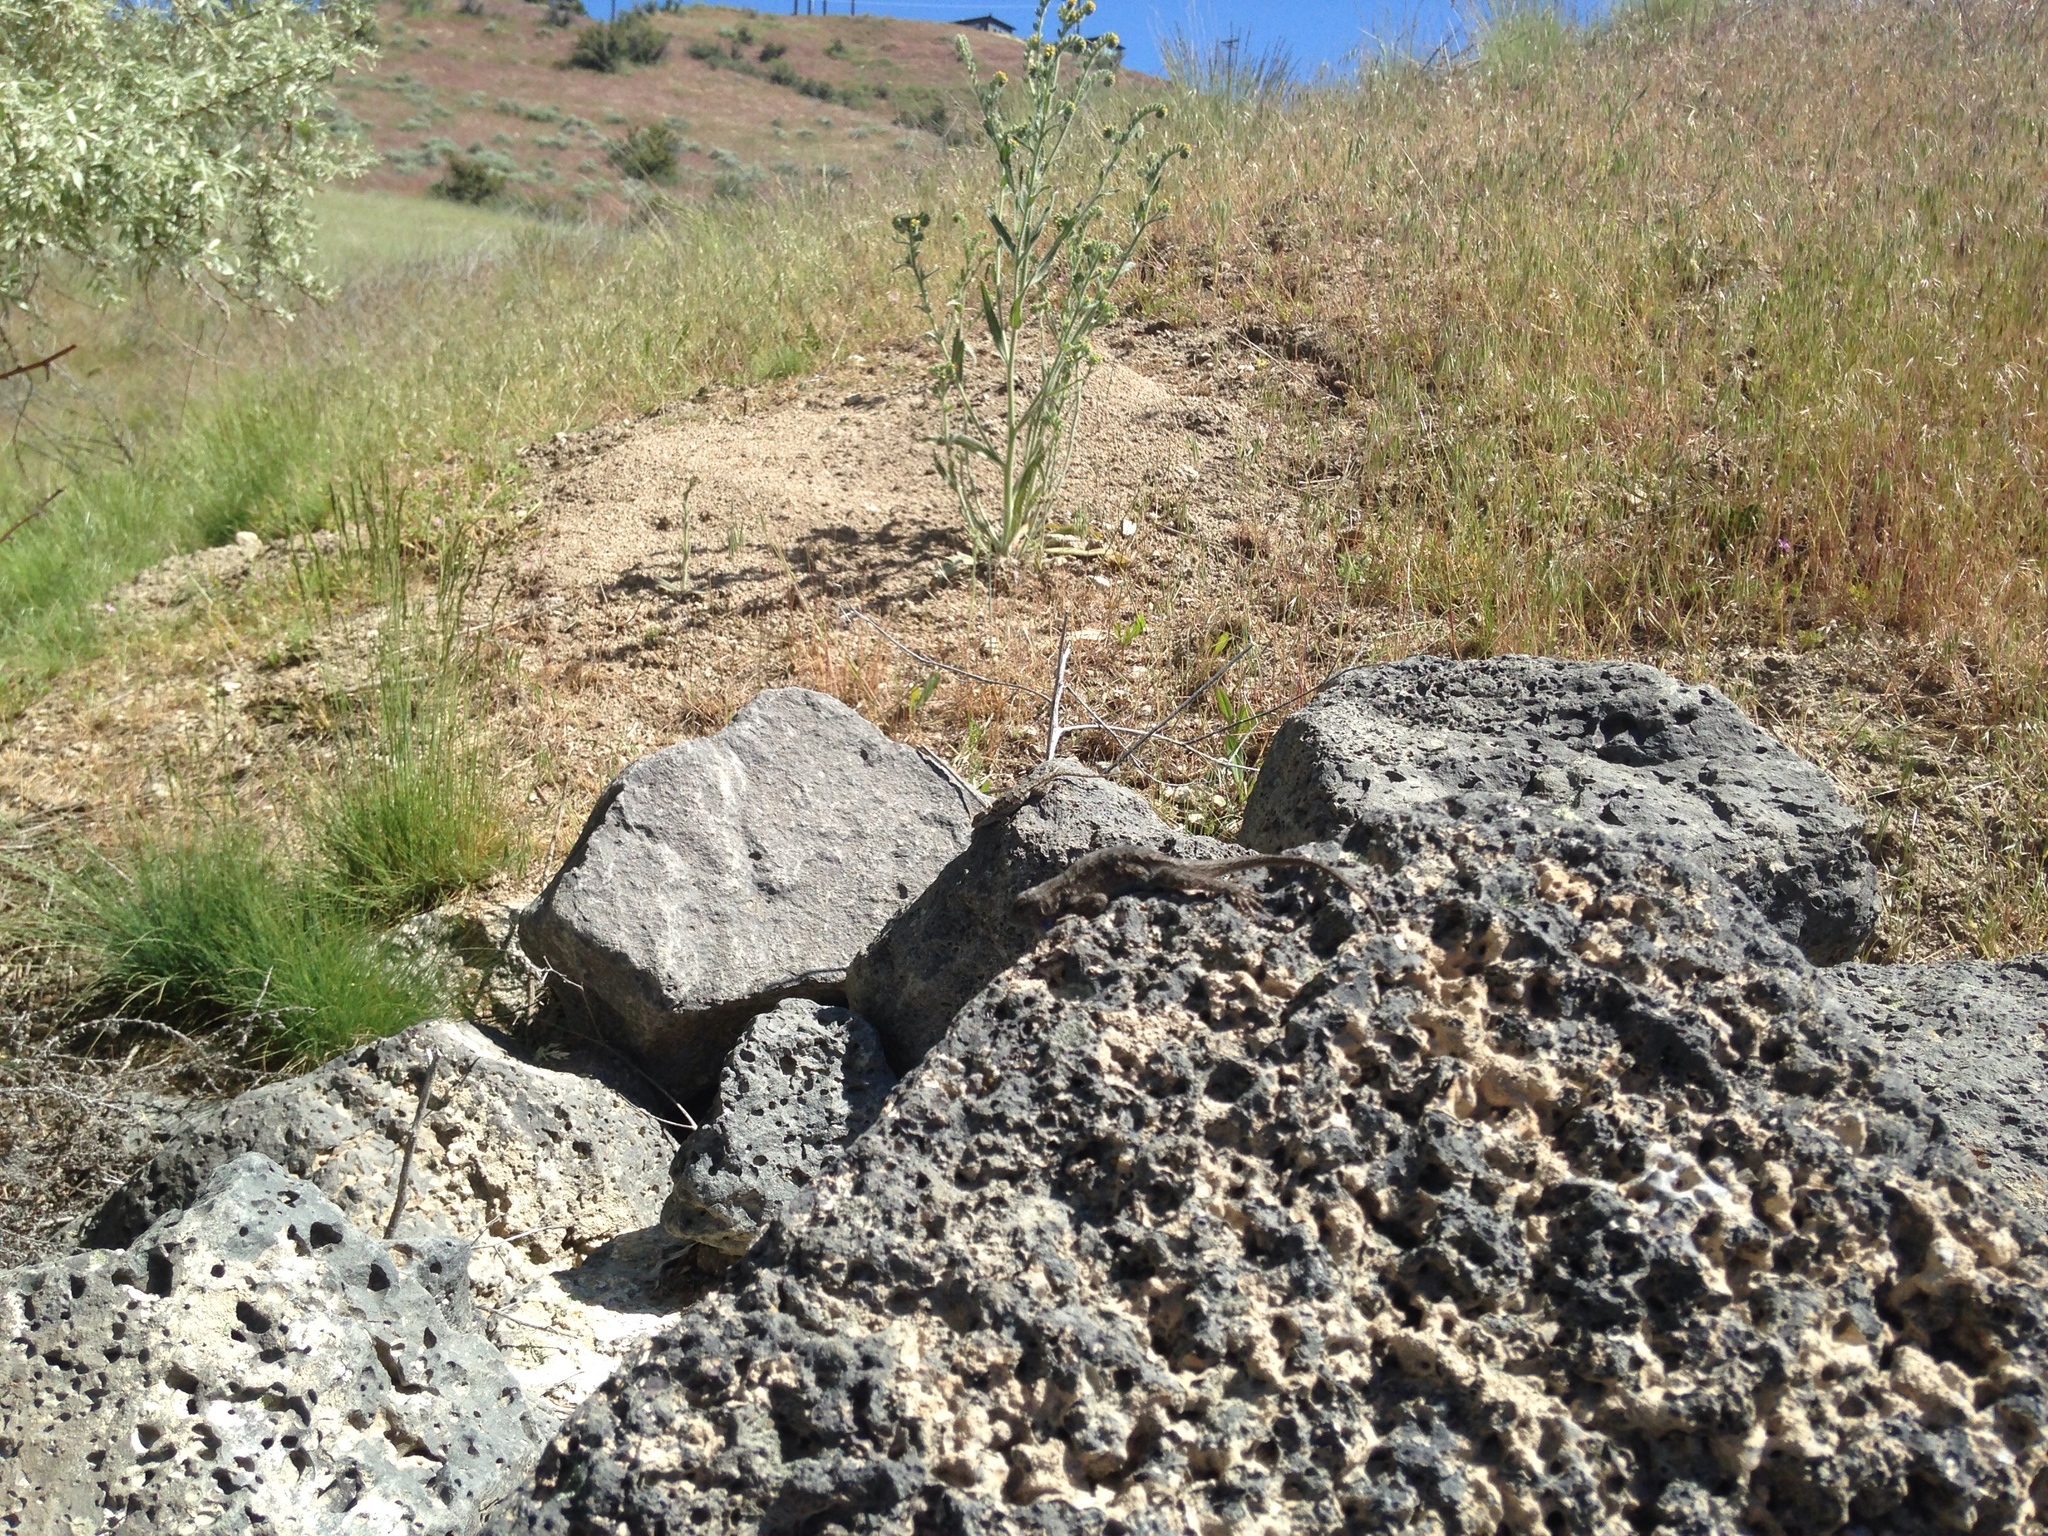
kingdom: Animalia
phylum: Chordata
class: Squamata
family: Phrynosomatidae
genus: Sceloporus
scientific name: Sceloporus occidentalis
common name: Western fence lizard
